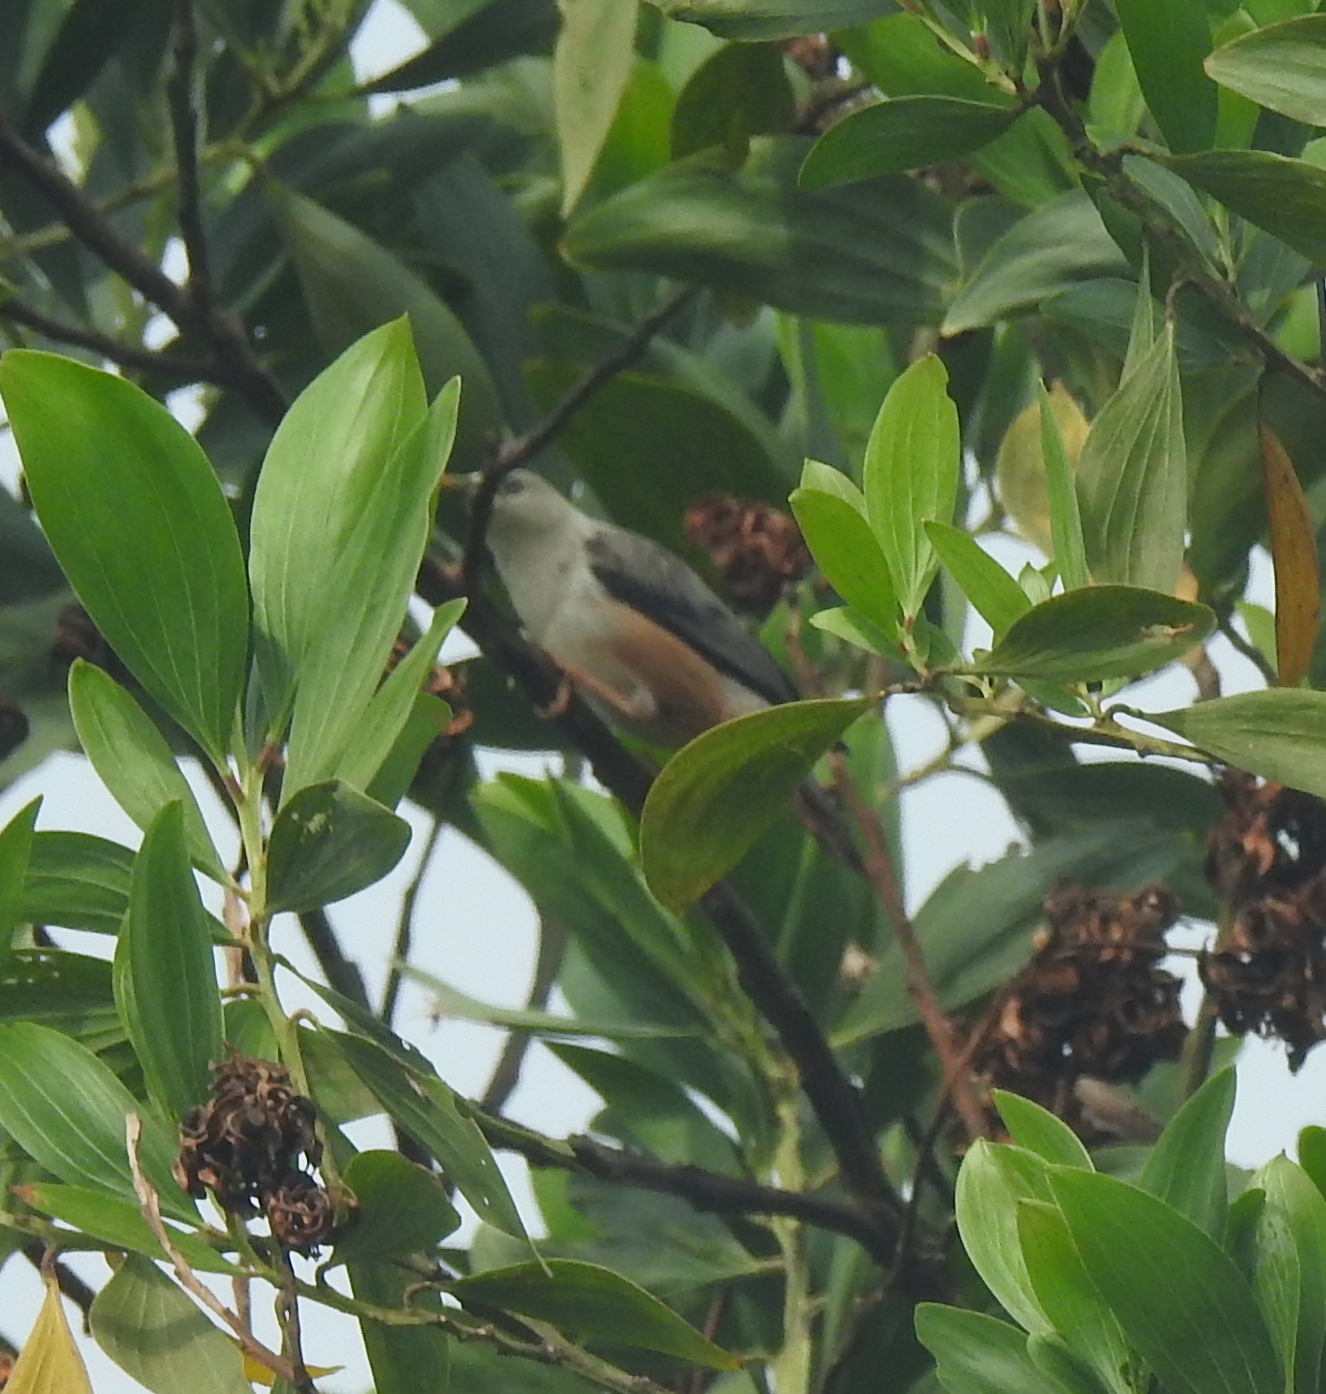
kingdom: Animalia
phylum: Chordata
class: Aves
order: Passeriformes
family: Sturnidae
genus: Sturnia
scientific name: Sturnia malabarica
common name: Chestnut-tailed starling
